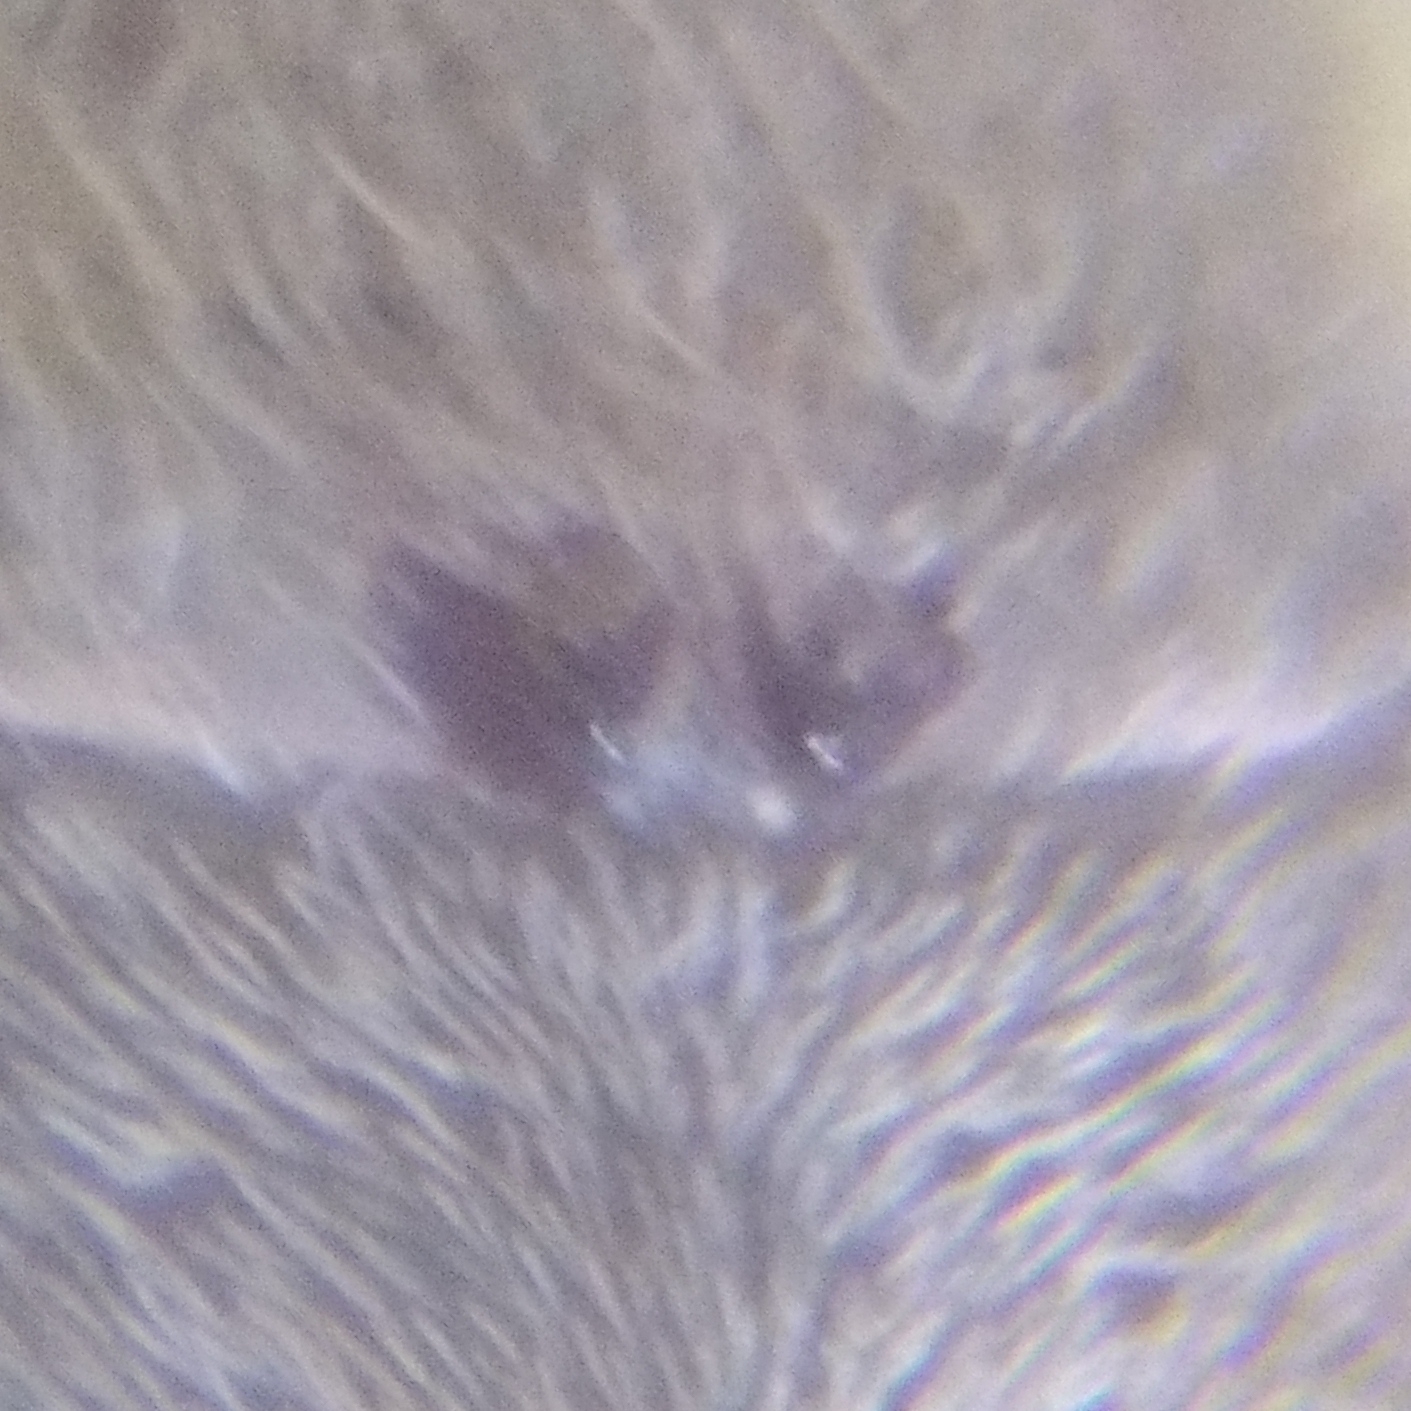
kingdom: Animalia
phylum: Arthropoda
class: Arachnida
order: Araneae
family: Lycosidae
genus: Pirata
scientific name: Pirata piraticus
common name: Pirate otter spider
